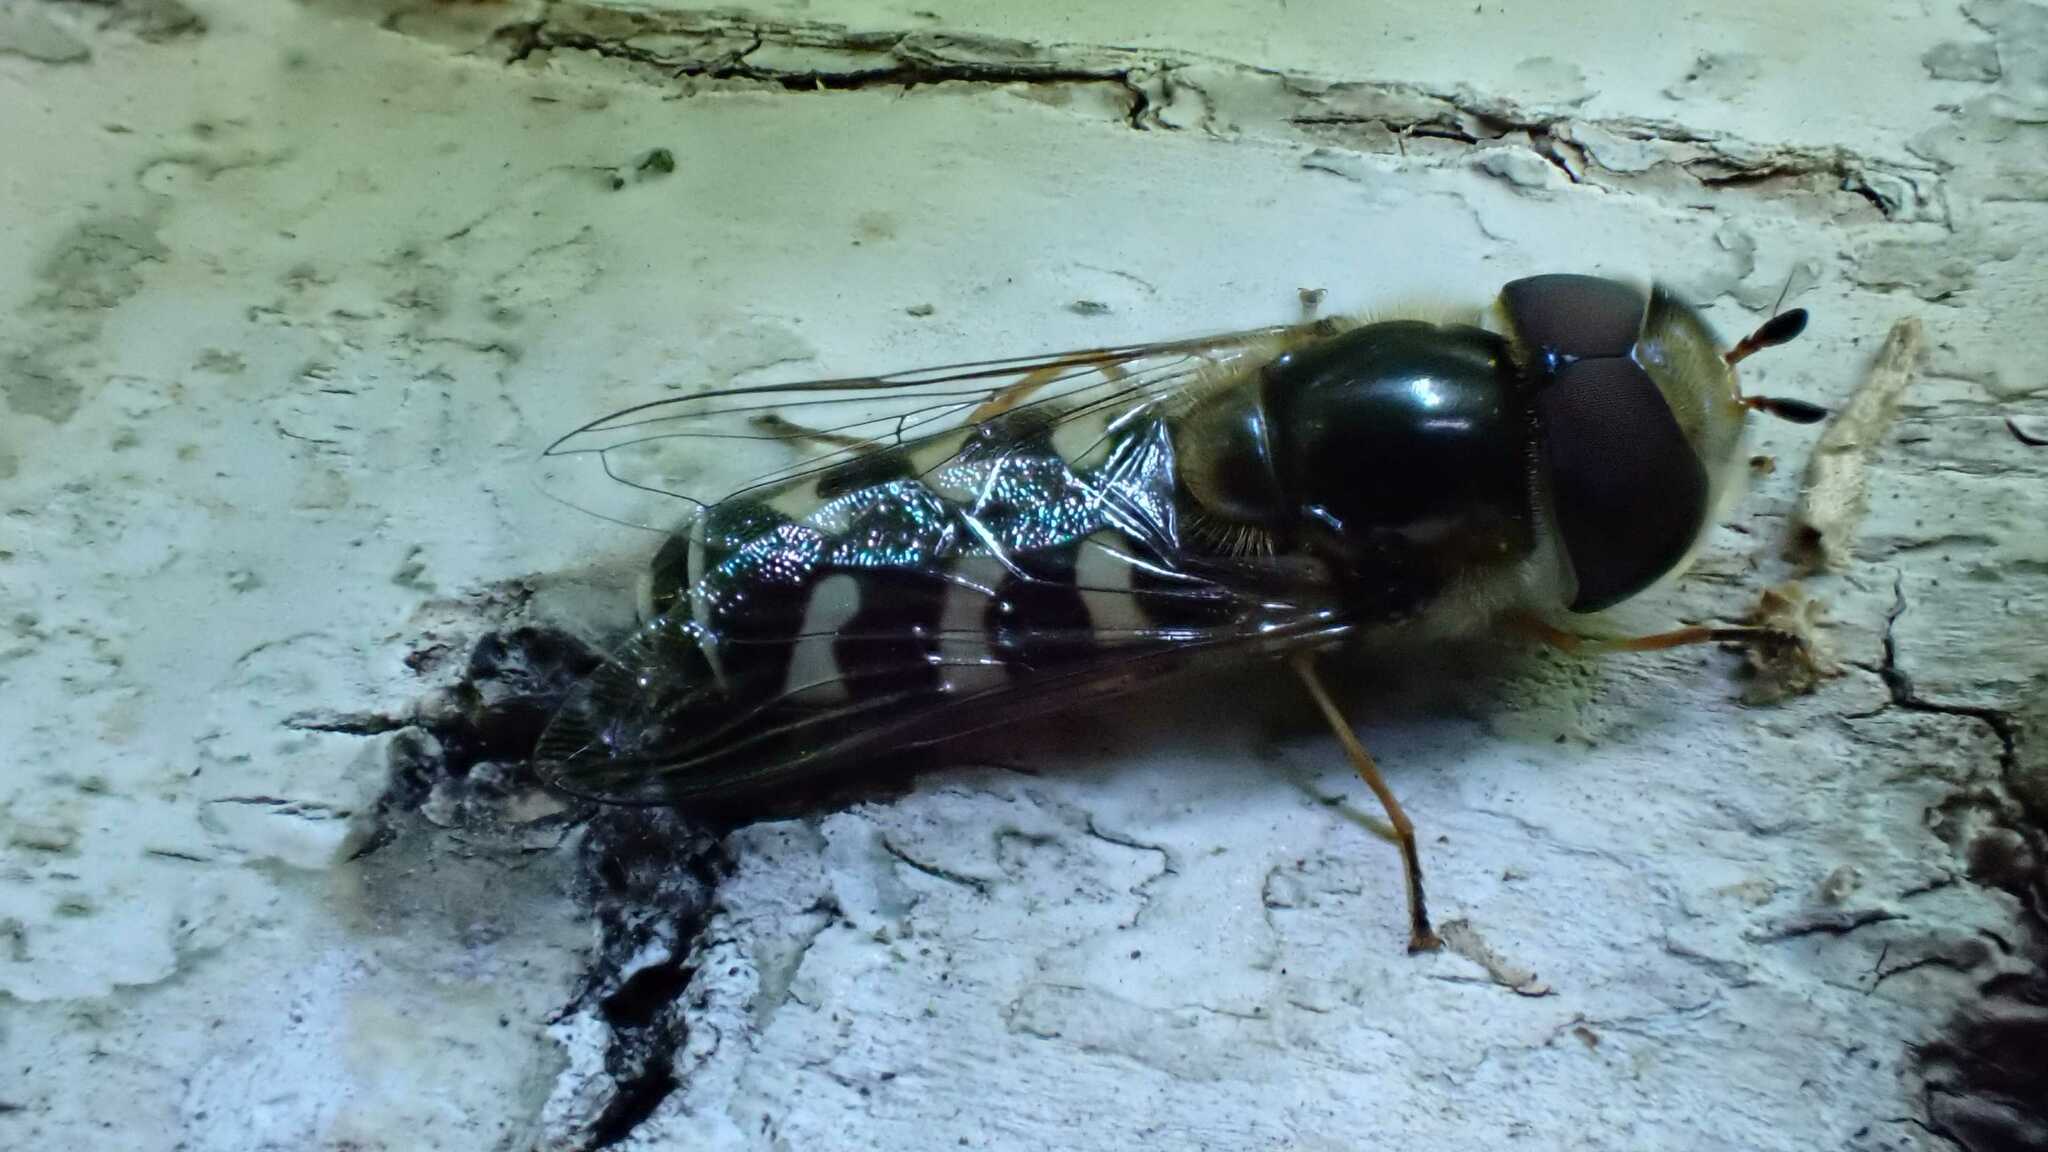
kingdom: Animalia
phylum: Arthropoda
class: Insecta
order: Diptera
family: Syrphidae
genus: Scaeva
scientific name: Scaeva pyrastri
